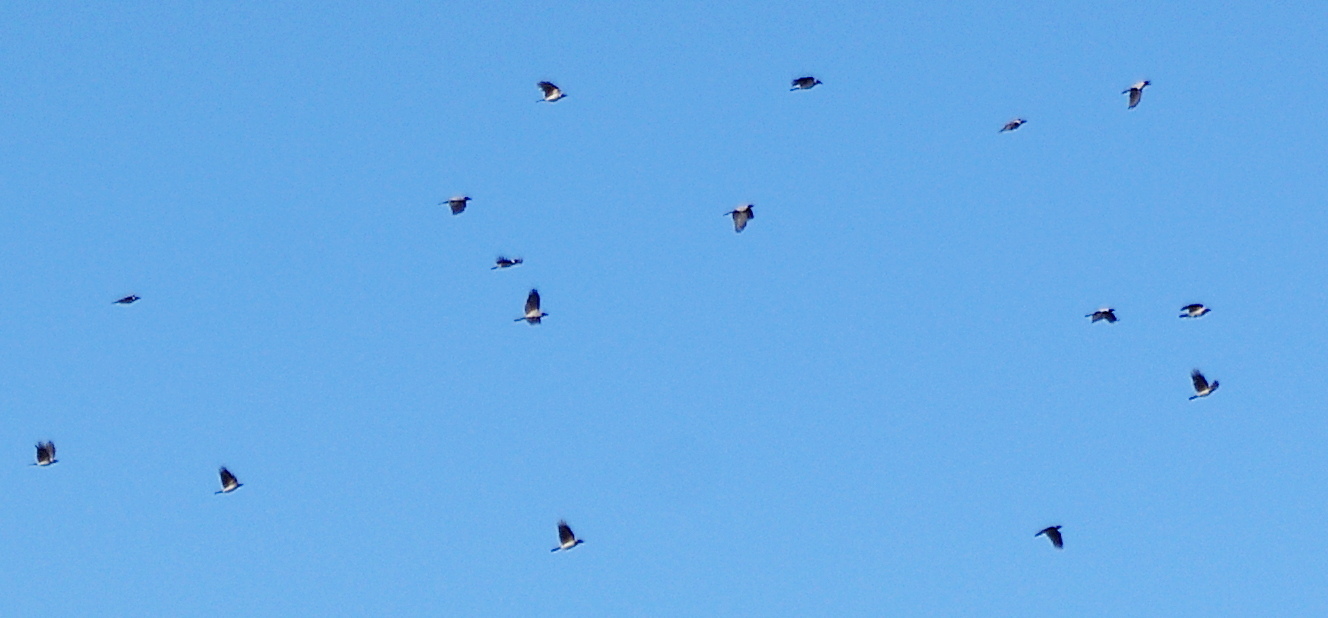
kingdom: Animalia
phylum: Chordata
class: Aves
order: Passeriformes
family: Corvidae
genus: Corvus
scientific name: Corvus cornix
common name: Hooded crow
